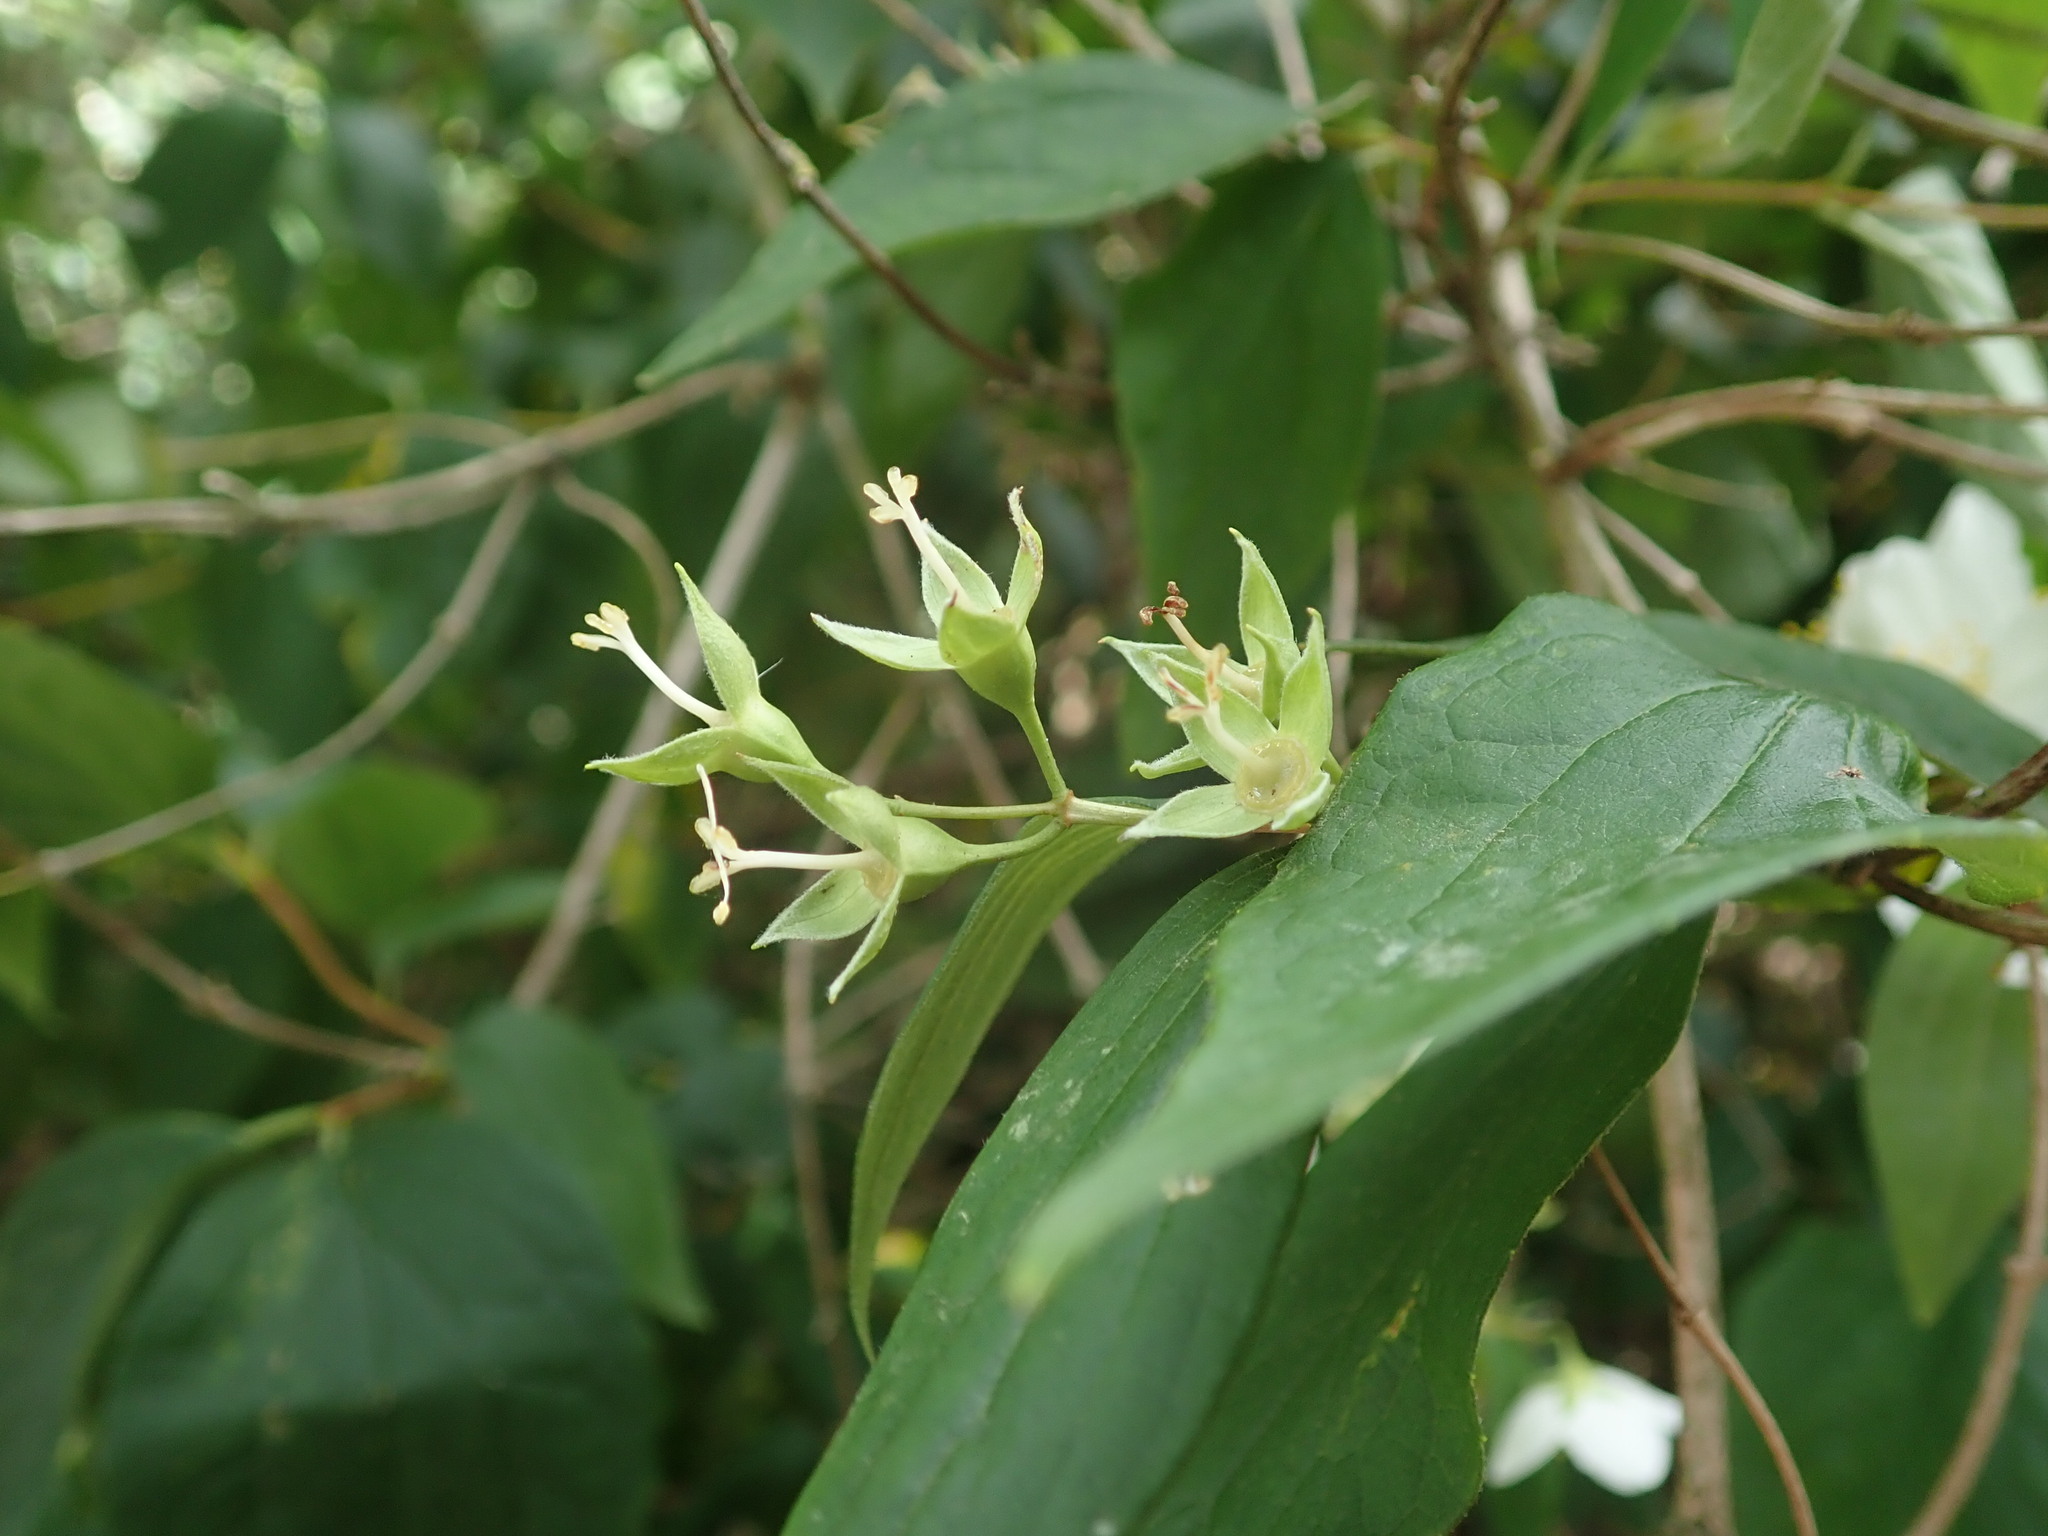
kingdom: Plantae
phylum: Tracheophyta
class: Magnoliopsida
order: Cornales
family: Hydrangeaceae
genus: Philadelphus
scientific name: Philadelphus coronarius
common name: Mock orange
